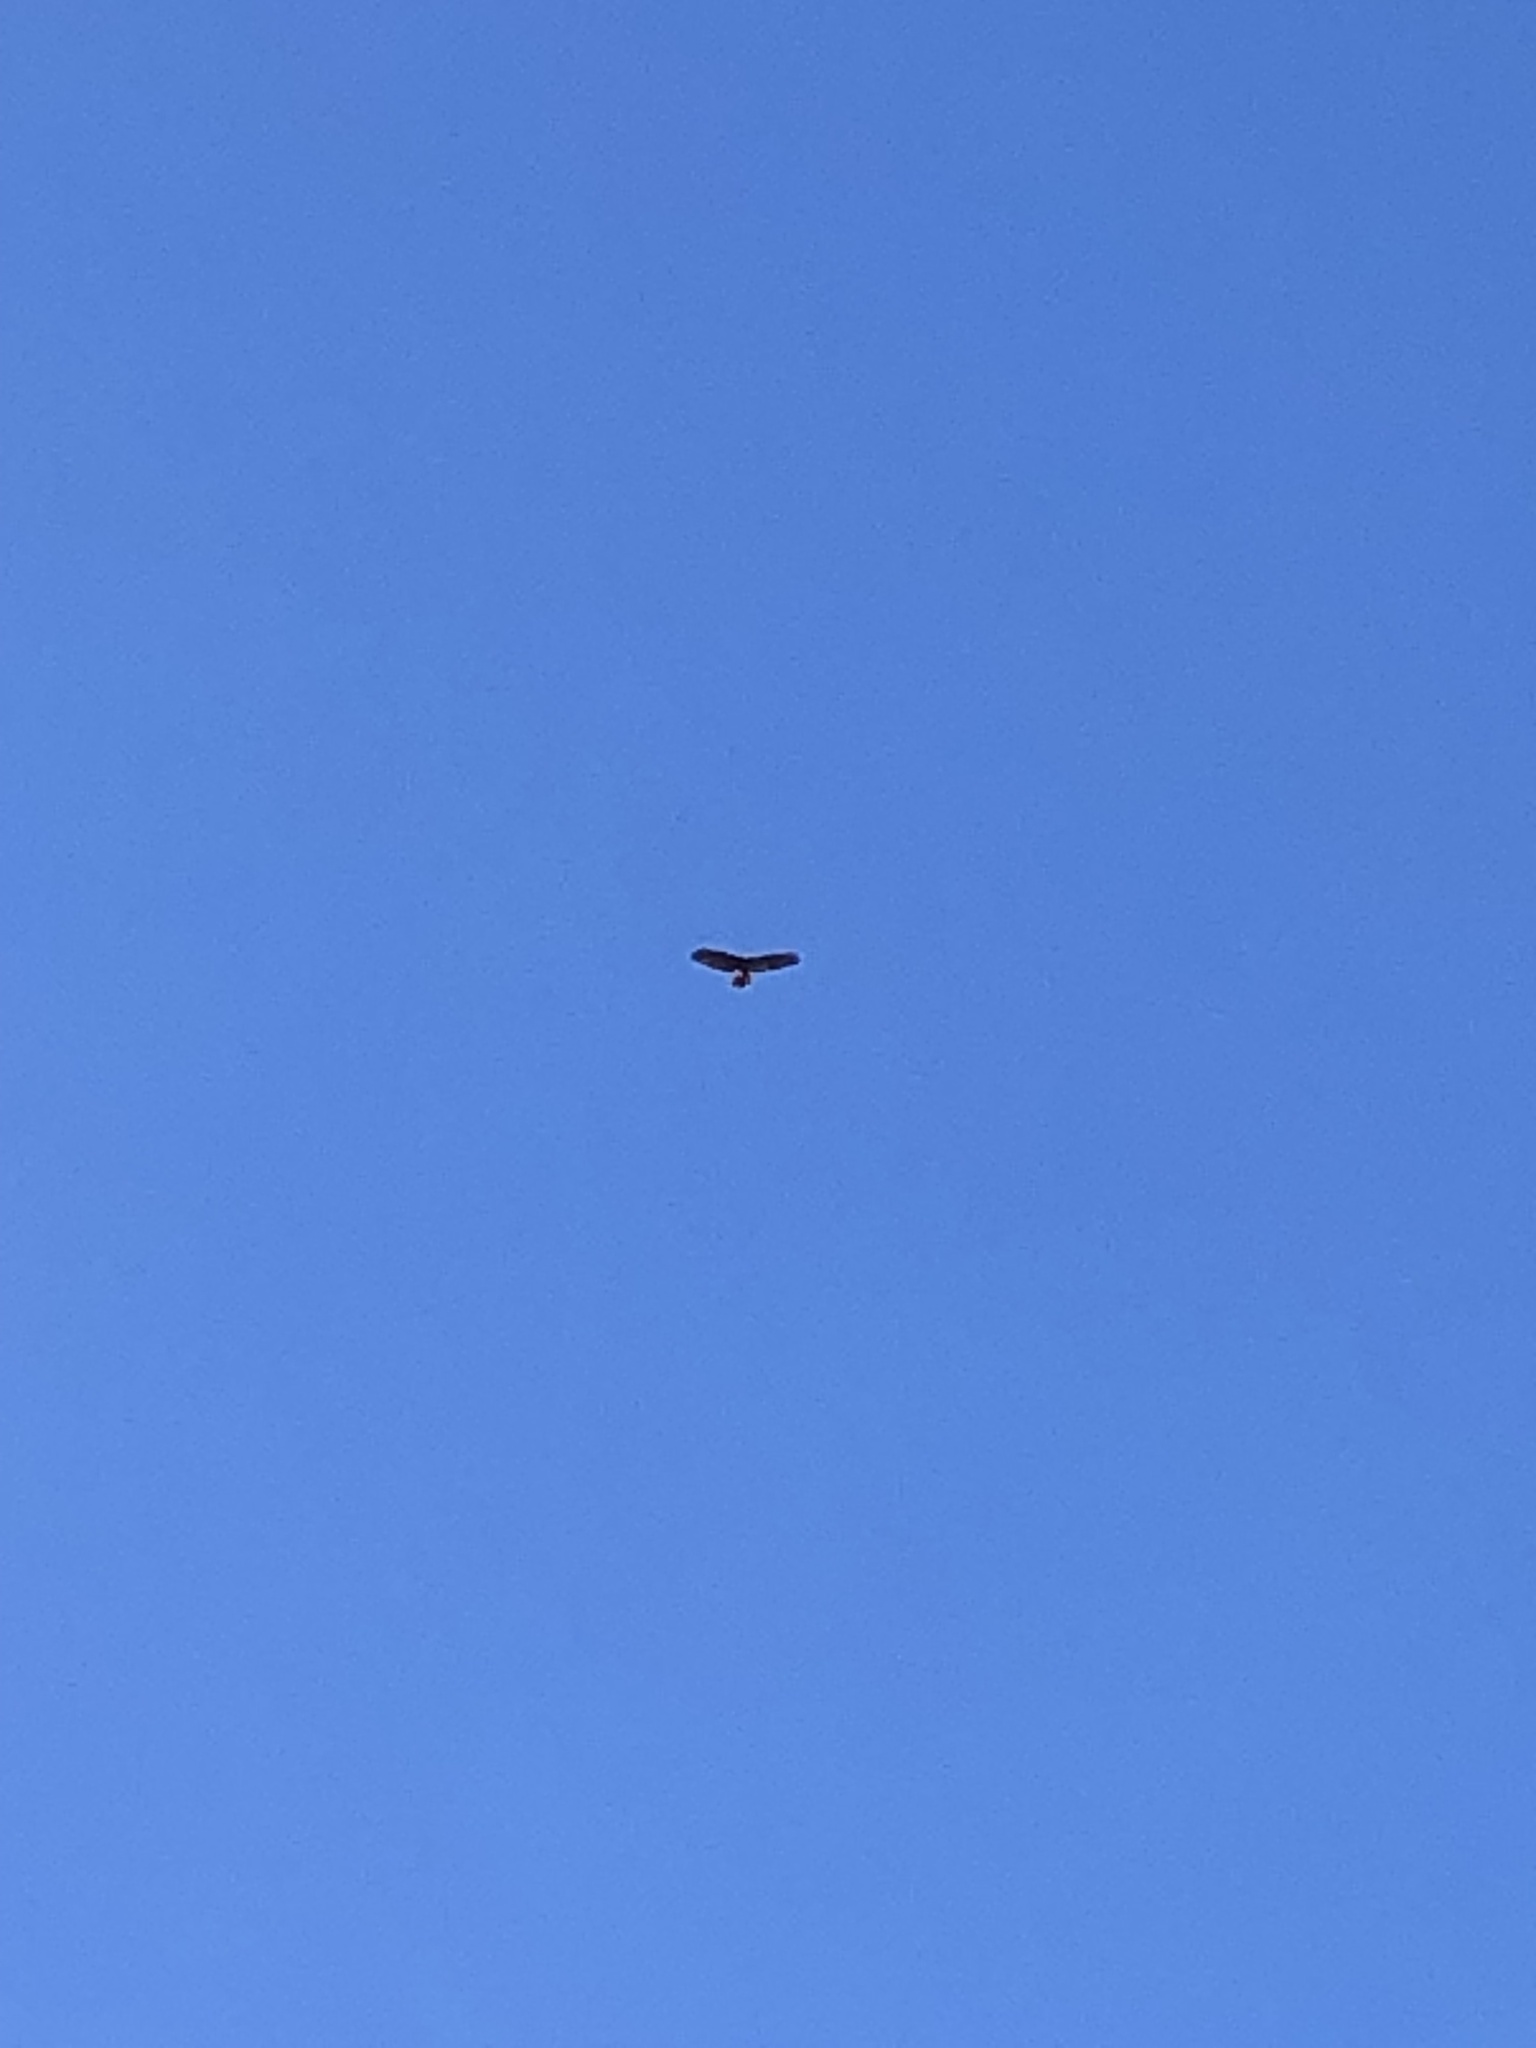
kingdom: Animalia
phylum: Chordata
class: Aves
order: Accipitriformes
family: Accipitridae
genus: Buteo
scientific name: Buteo jamaicensis
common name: Red-tailed hawk
